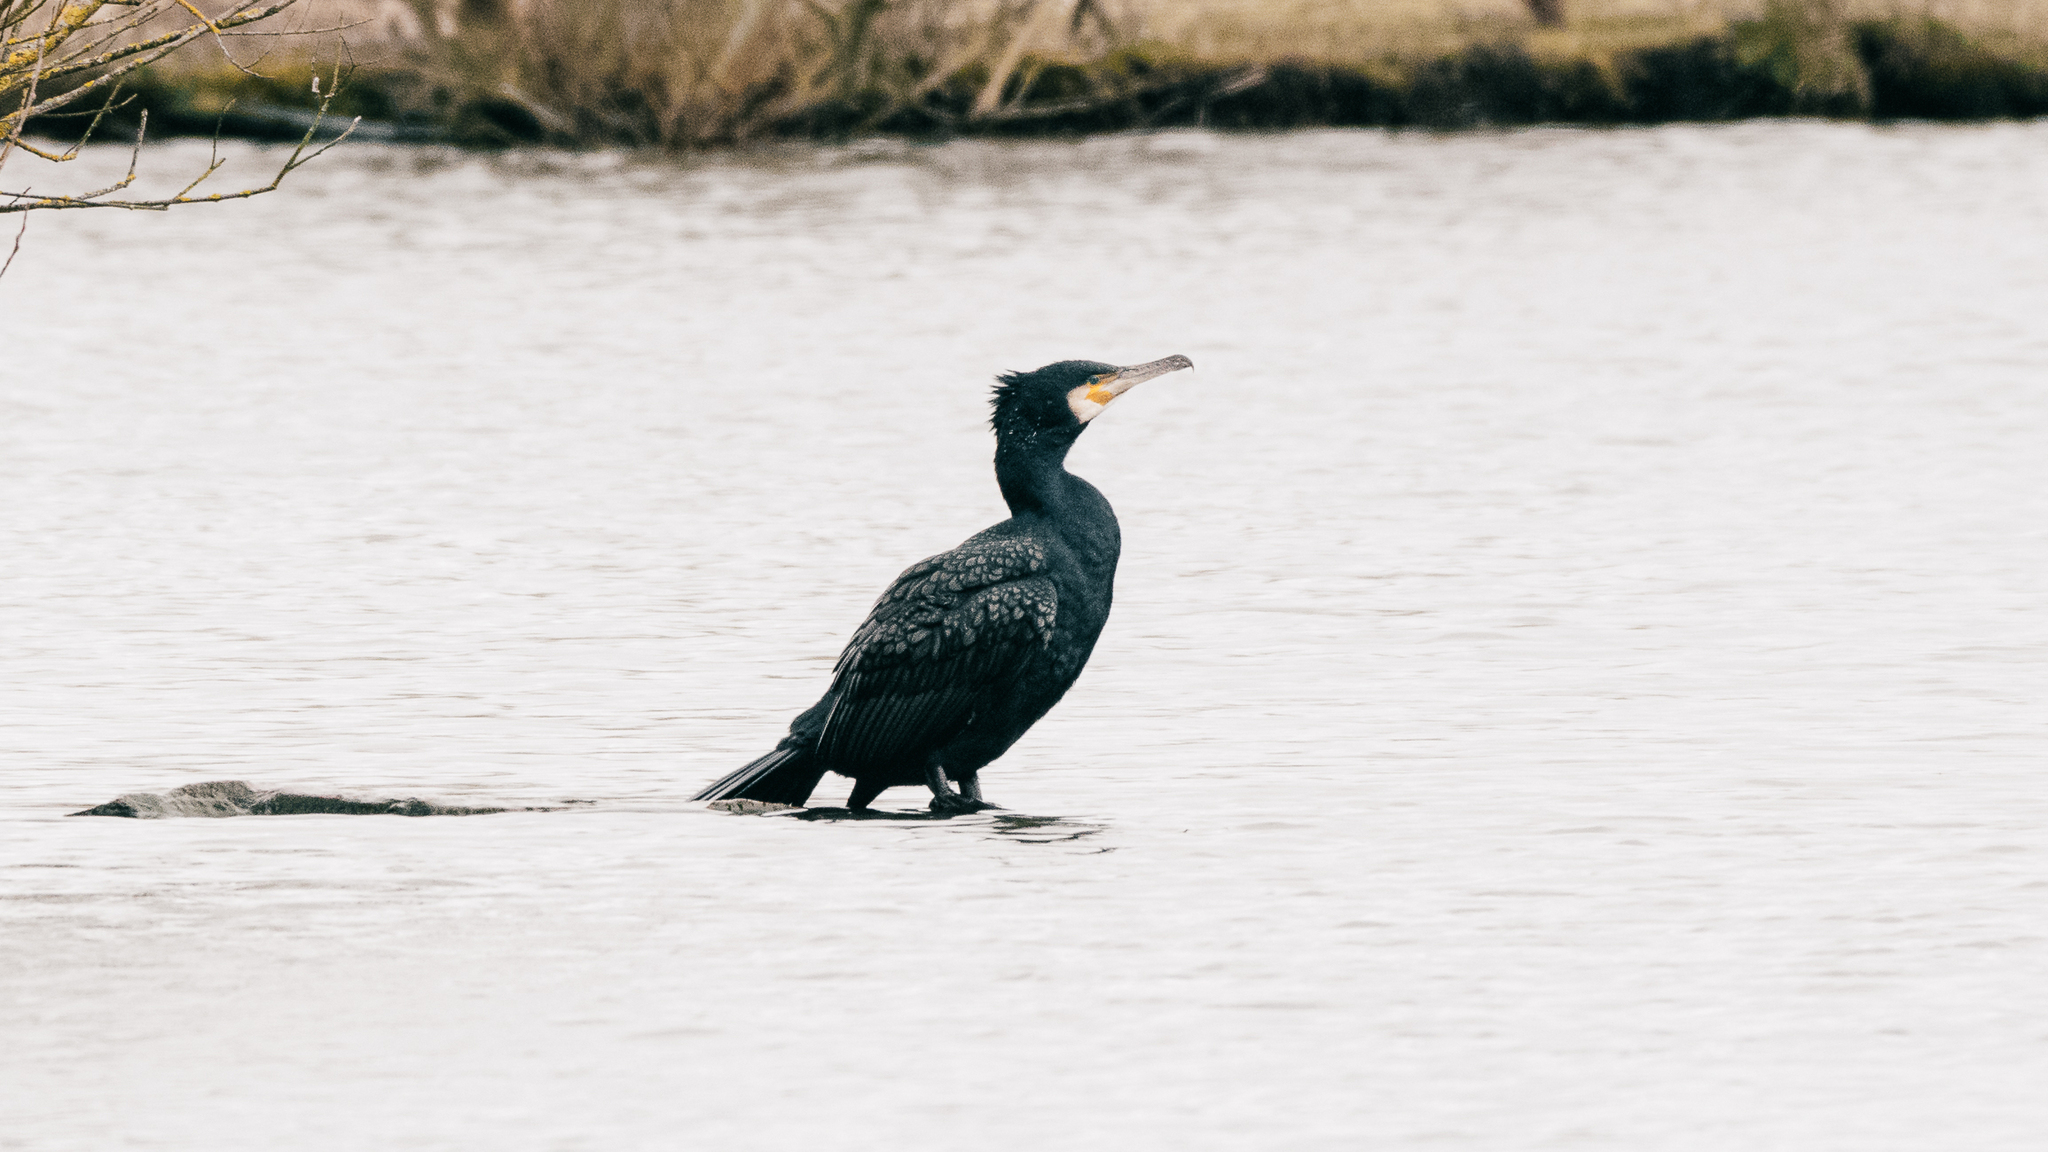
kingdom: Animalia
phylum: Chordata
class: Aves
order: Suliformes
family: Phalacrocoracidae
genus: Phalacrocorax
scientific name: Phalacrocorax carbo
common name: Great cormorant
